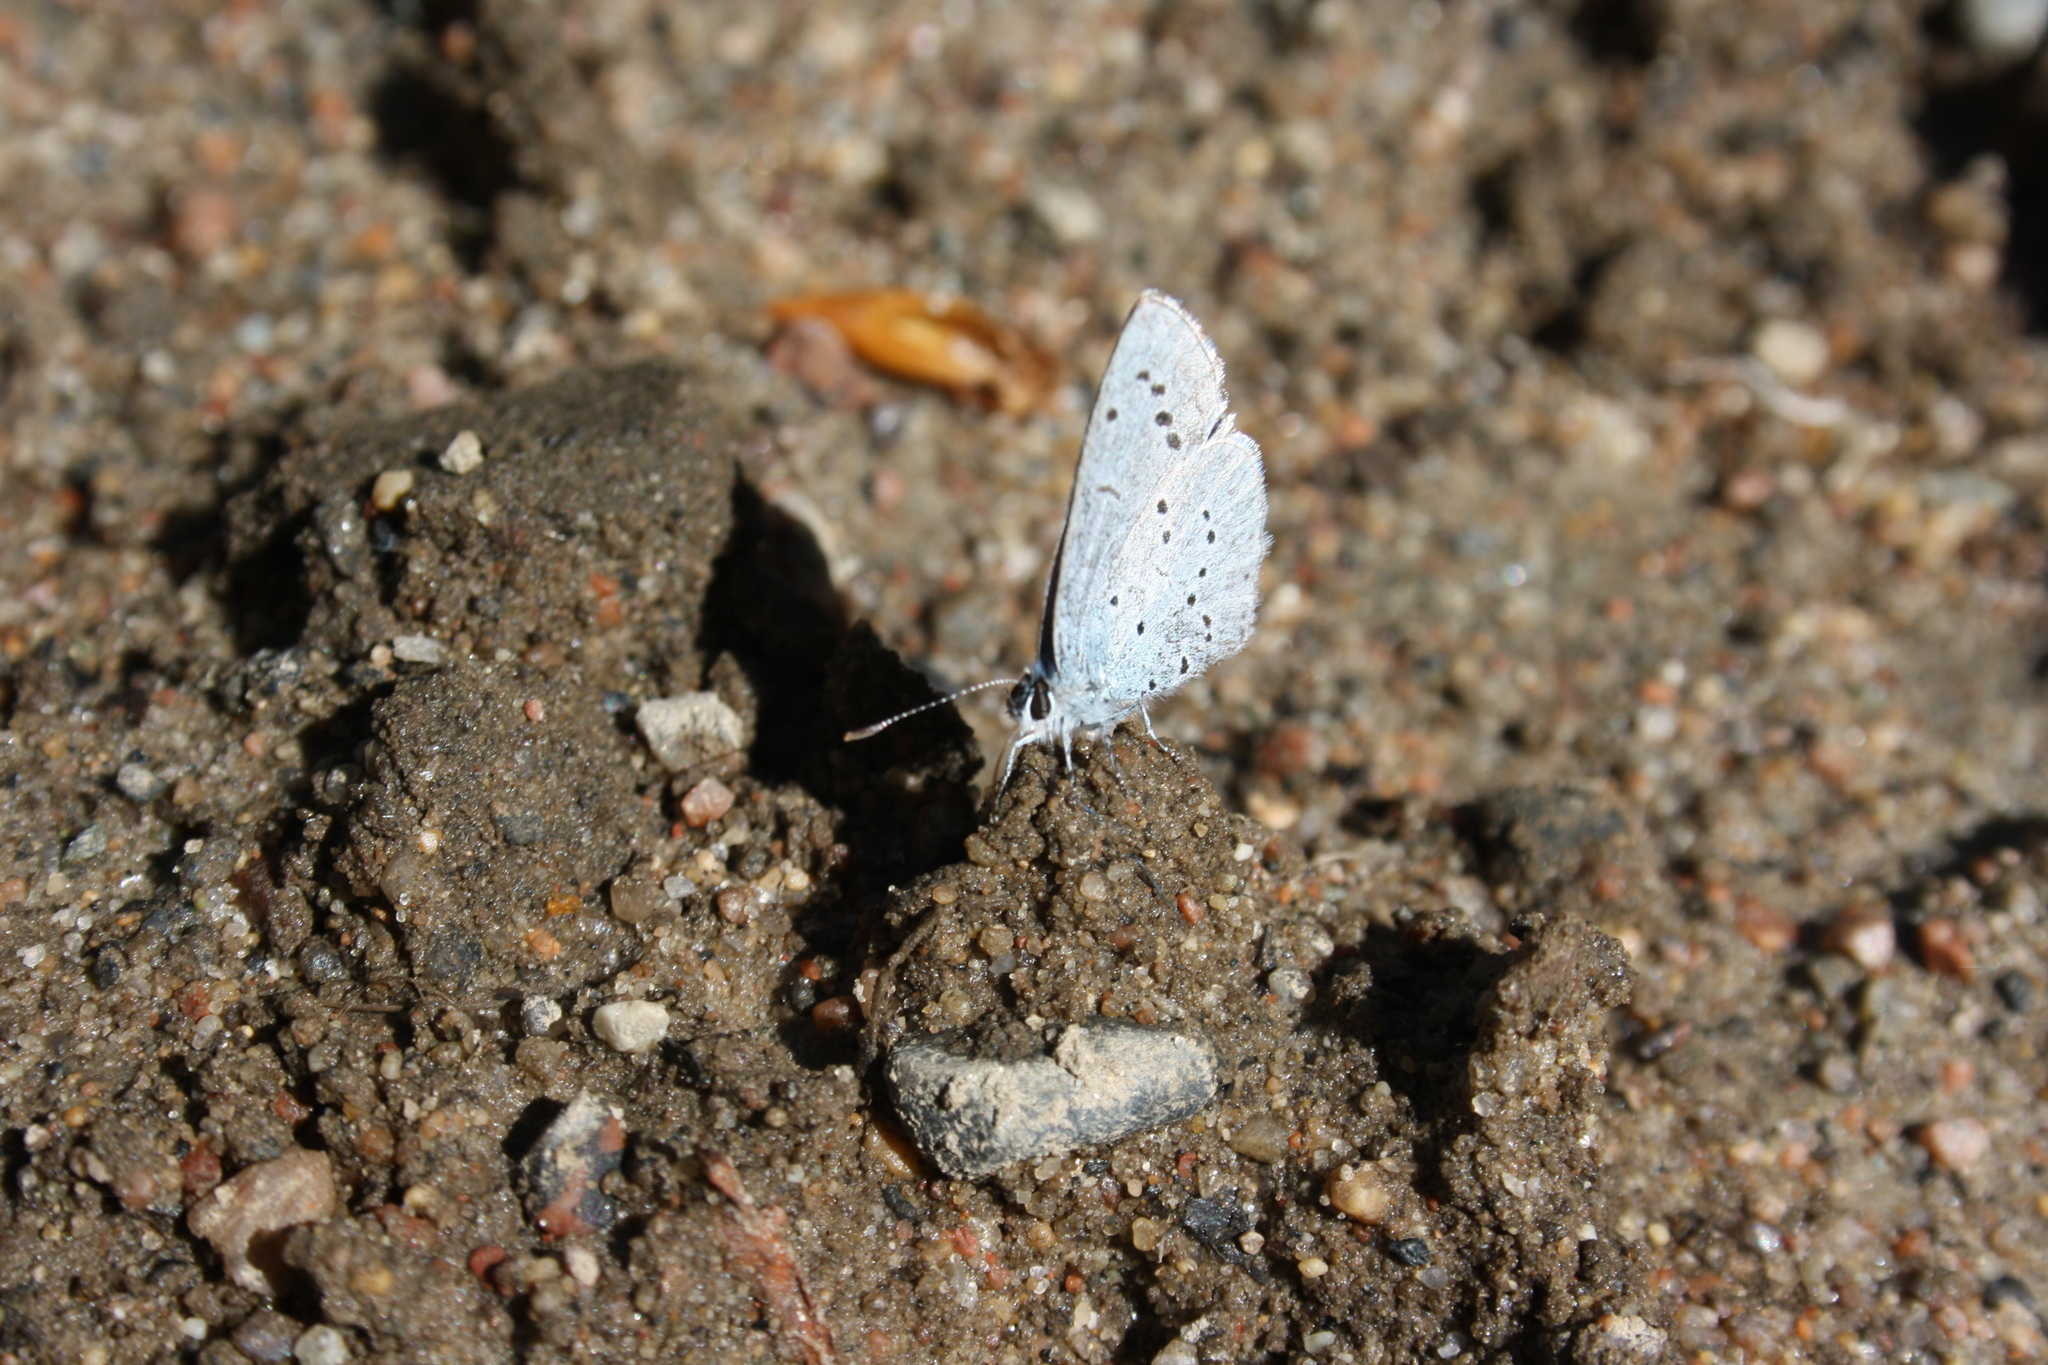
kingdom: Animalia
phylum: Arthropoda
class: Insecta
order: Lepidoptera
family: Lycaenidae
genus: Celastrina
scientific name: Celastrina argiolus
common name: Holly blue
